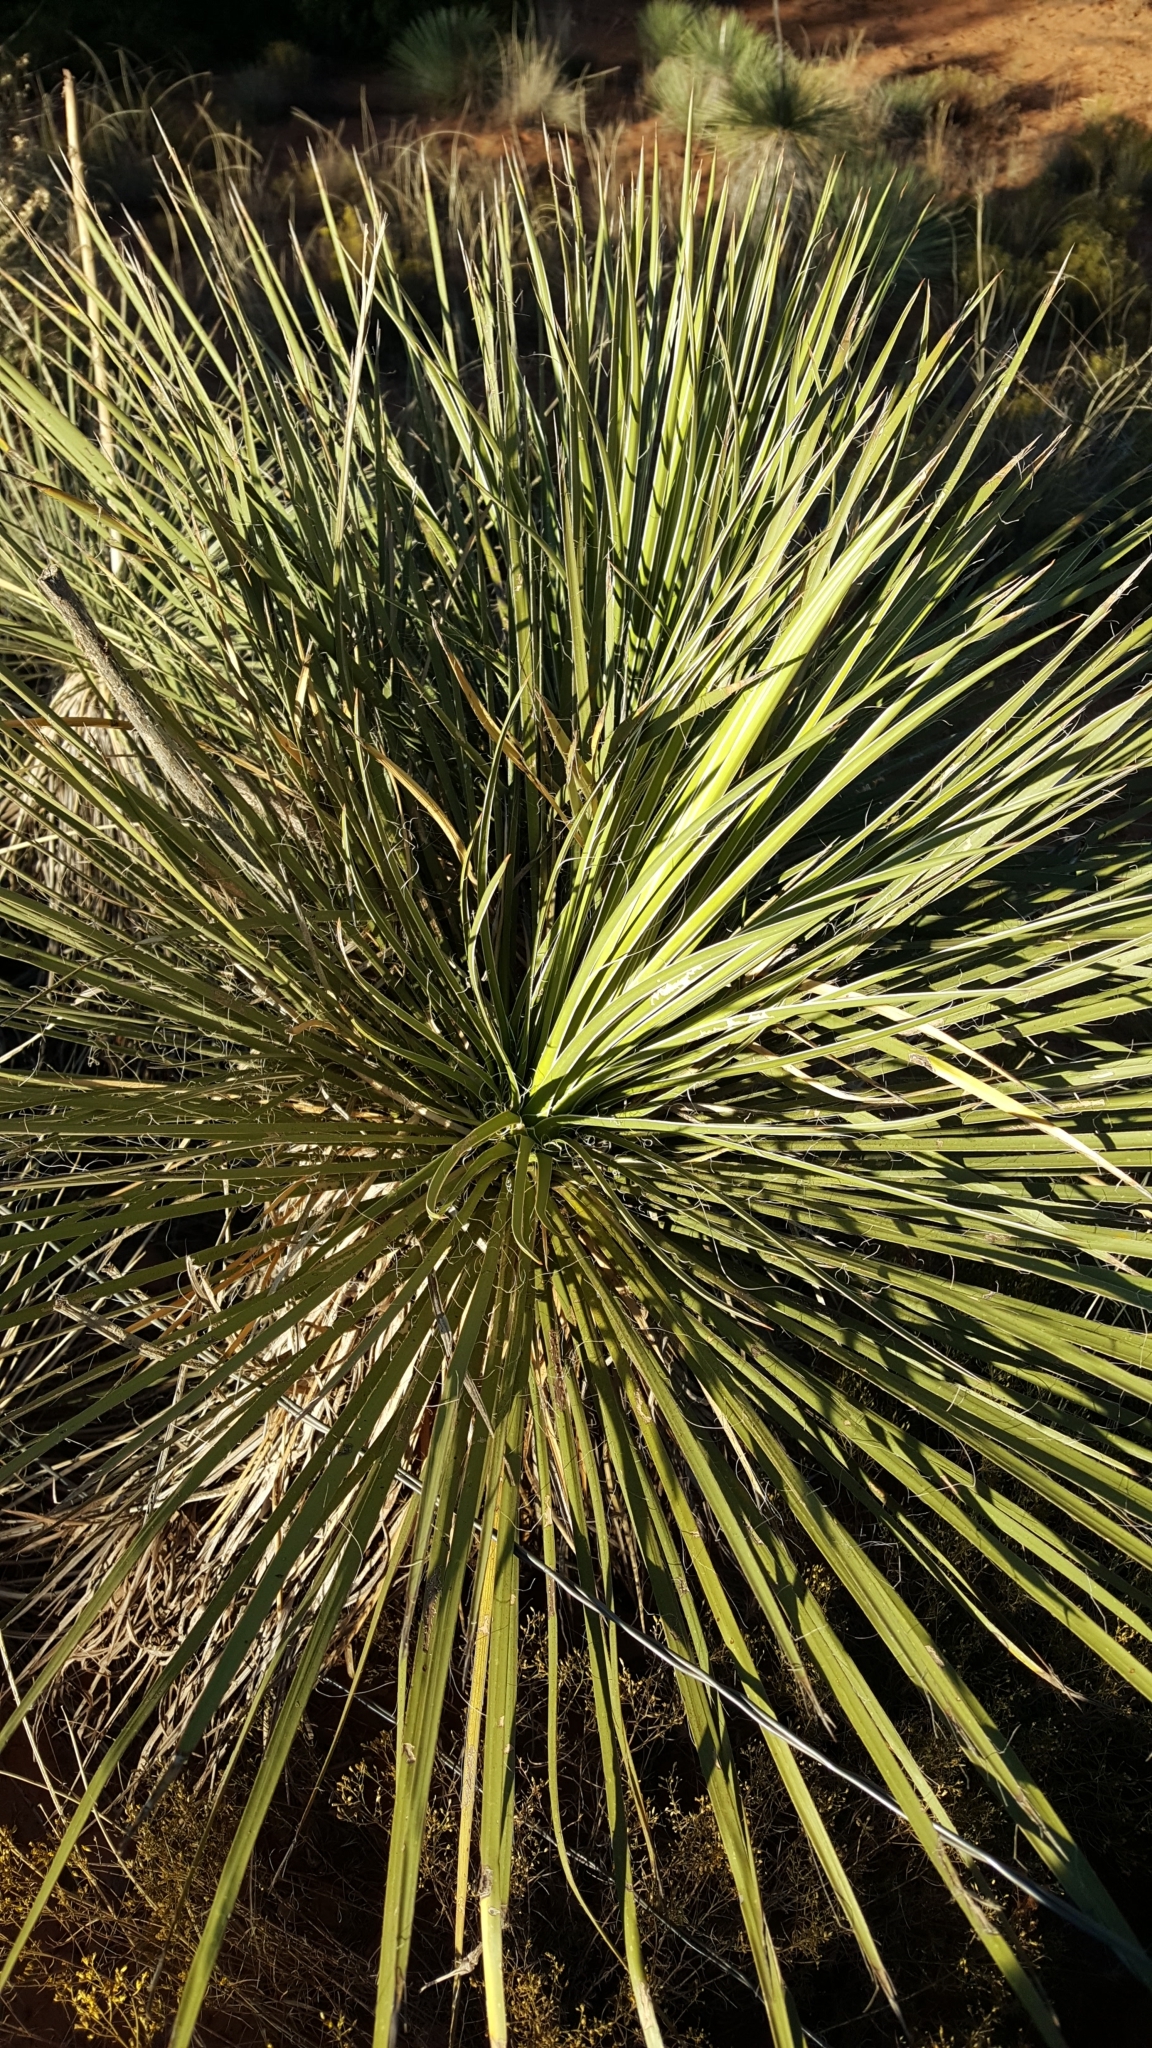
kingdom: Plantae
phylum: Tracheophyta
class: Liliopsida
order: Asparagales
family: Asparagaceae
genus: Yucca
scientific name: Yucca elata
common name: Palmella
